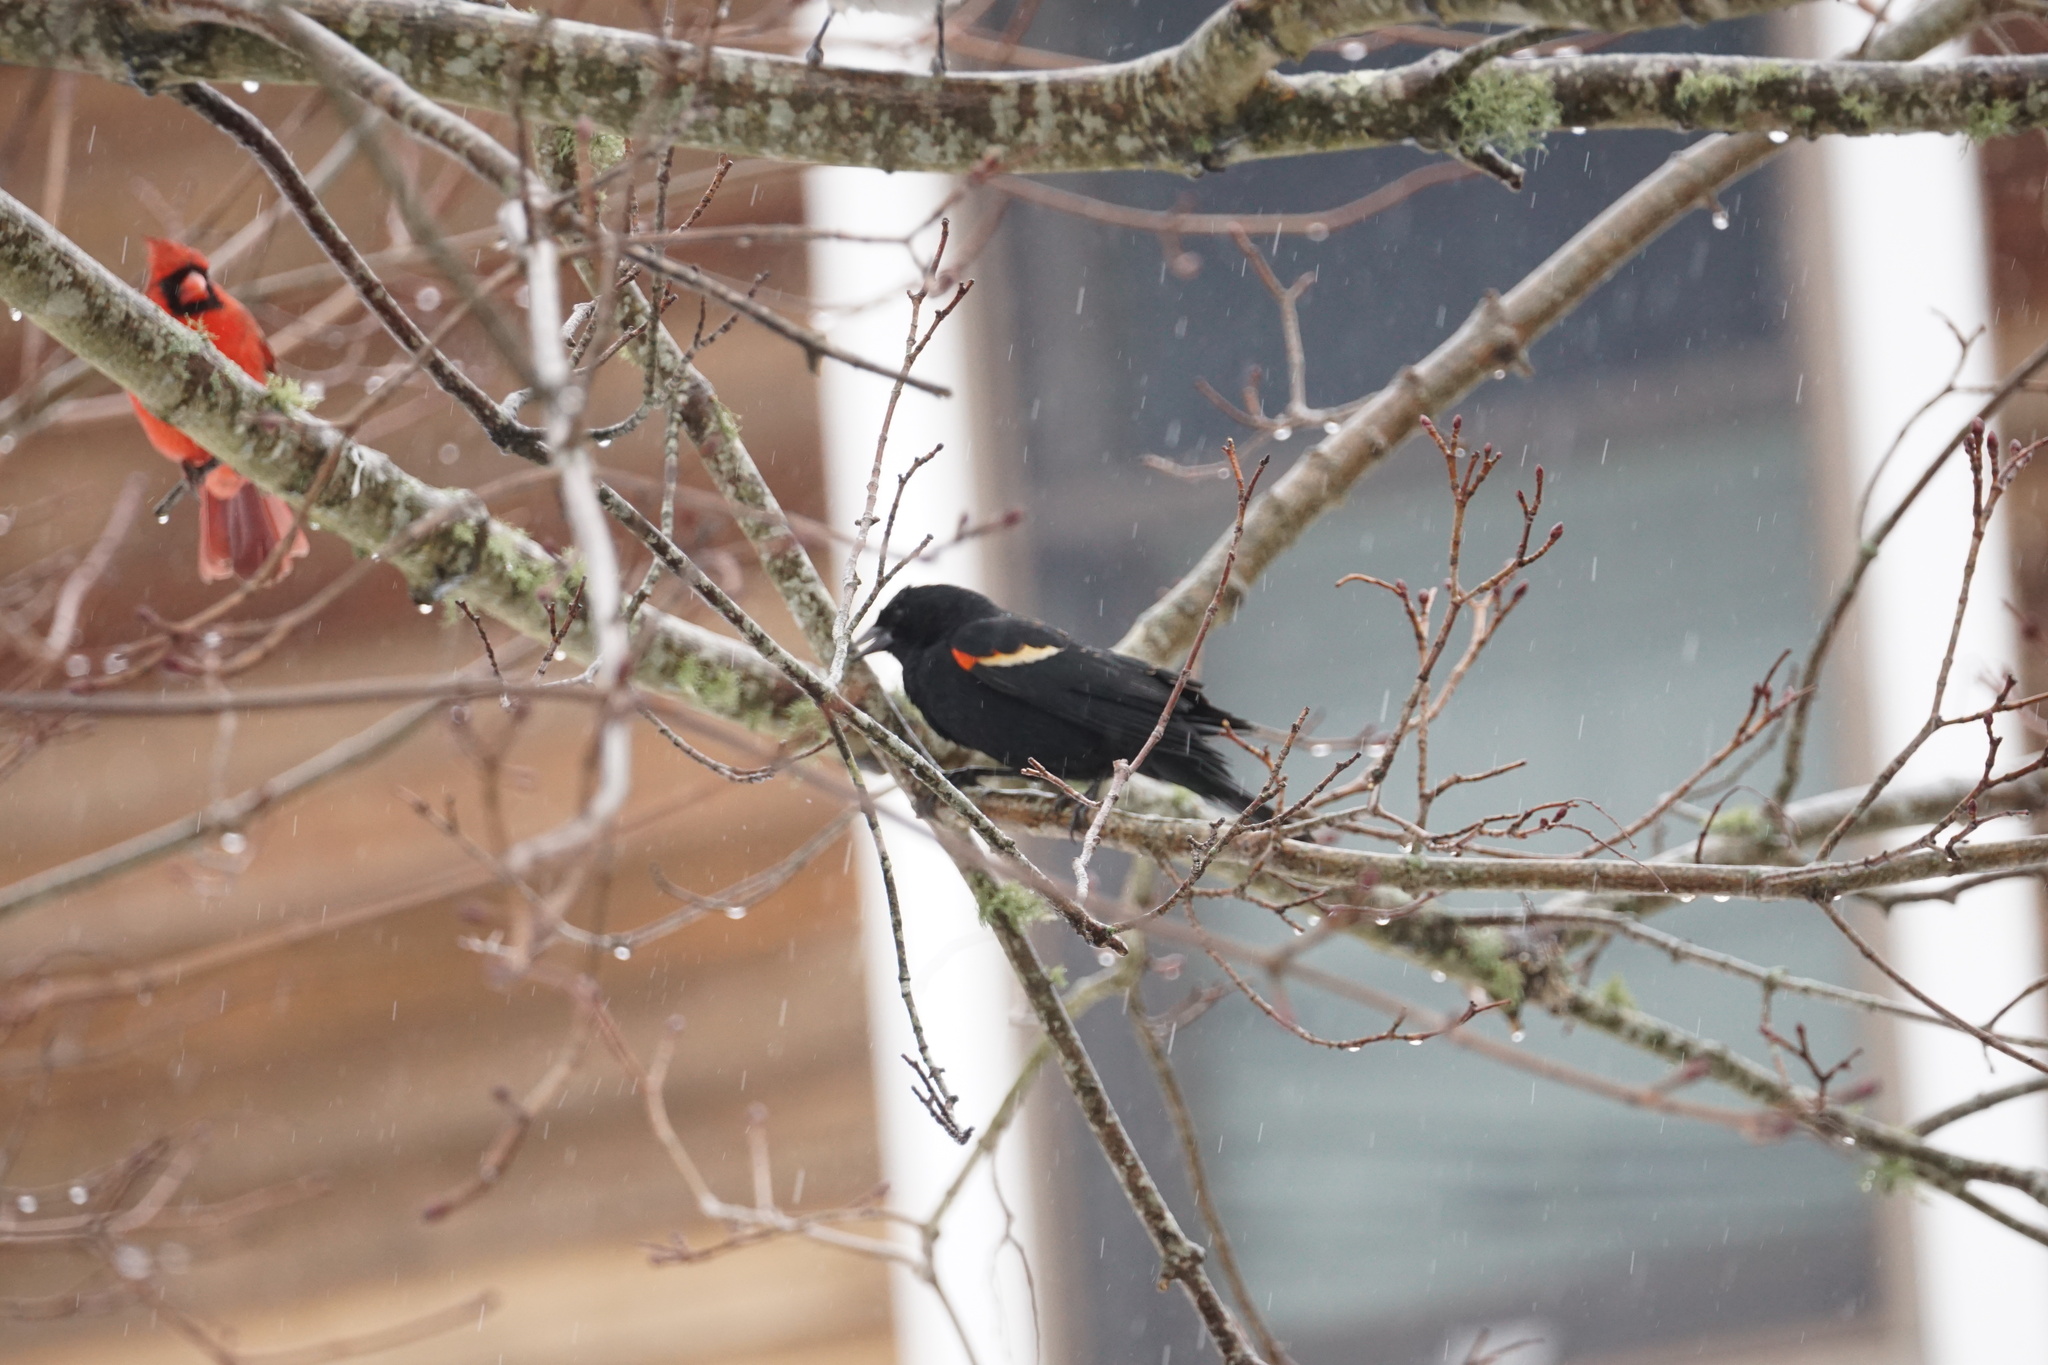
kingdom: Animalia
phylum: Chordata
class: Aves
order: Passeriformes
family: Icteridae
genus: Agelaius
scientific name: Agelaius phoeniceus
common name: Red-winged blackbird
